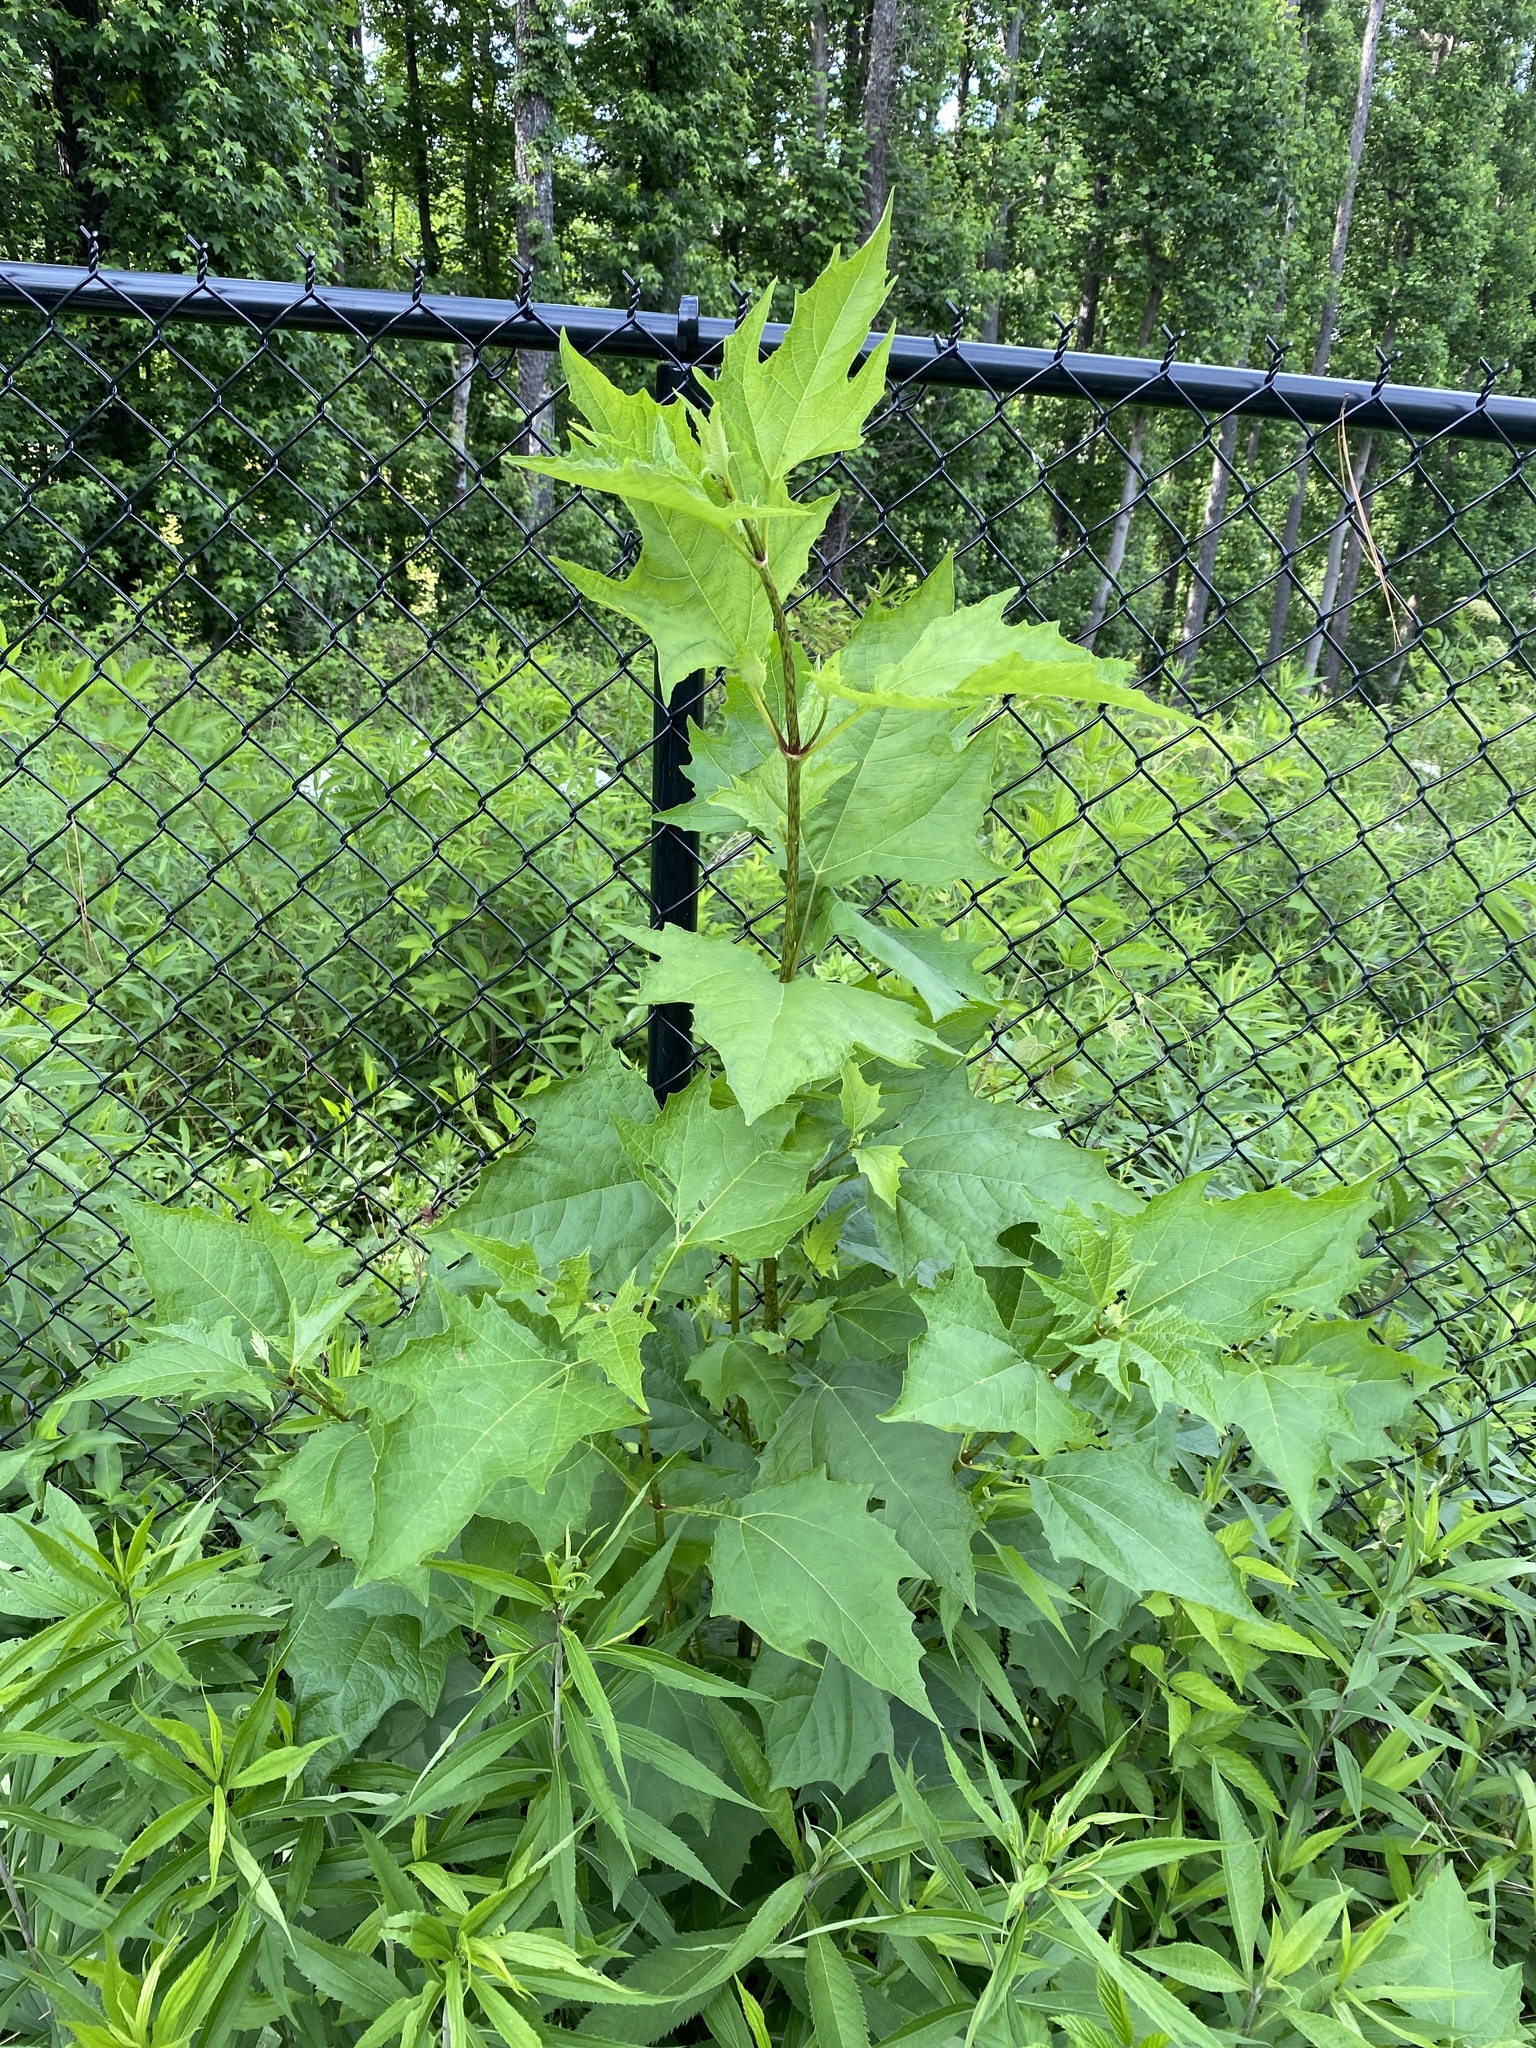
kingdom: Plantae
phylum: Tracheophyta
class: Magnoliopsida
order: Asterales
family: Asteraceae
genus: Smallanthus
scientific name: Smallanthus uvedalia
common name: Bear's-foot
